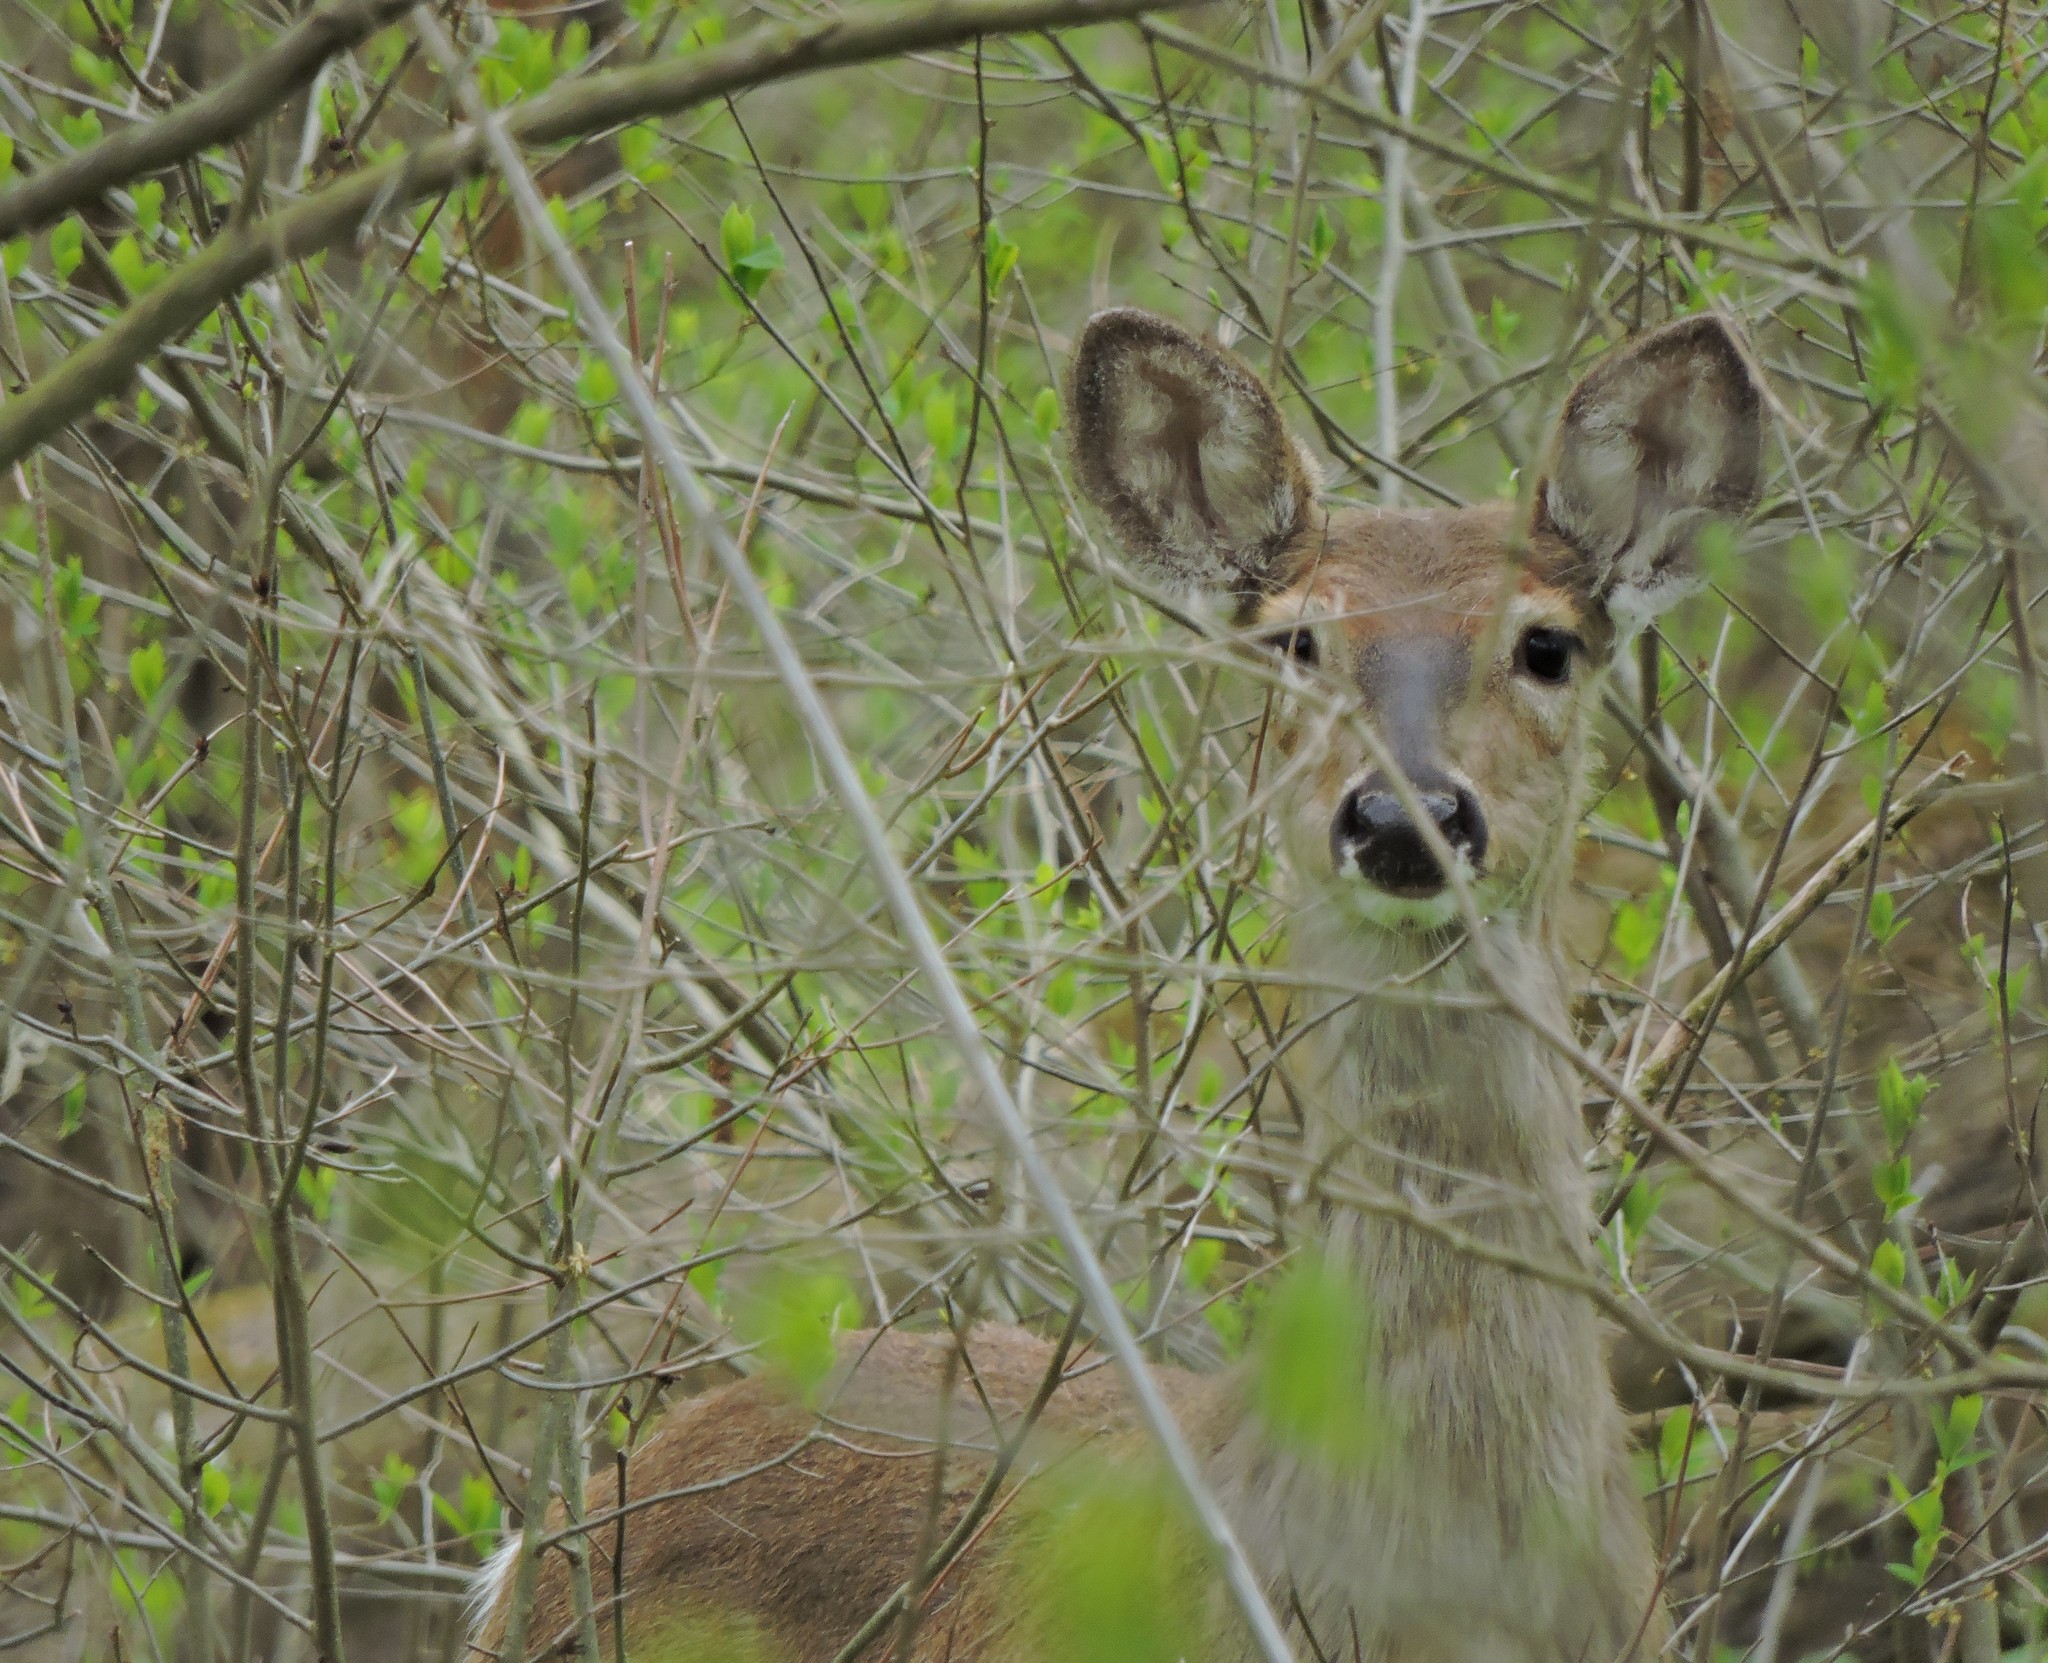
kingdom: Animalia
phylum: Chordata
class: Mammalia
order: Artiodactyla
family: Cervidae
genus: Odocoileus
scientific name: Odocoileus virginianus
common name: White-tailed deer
